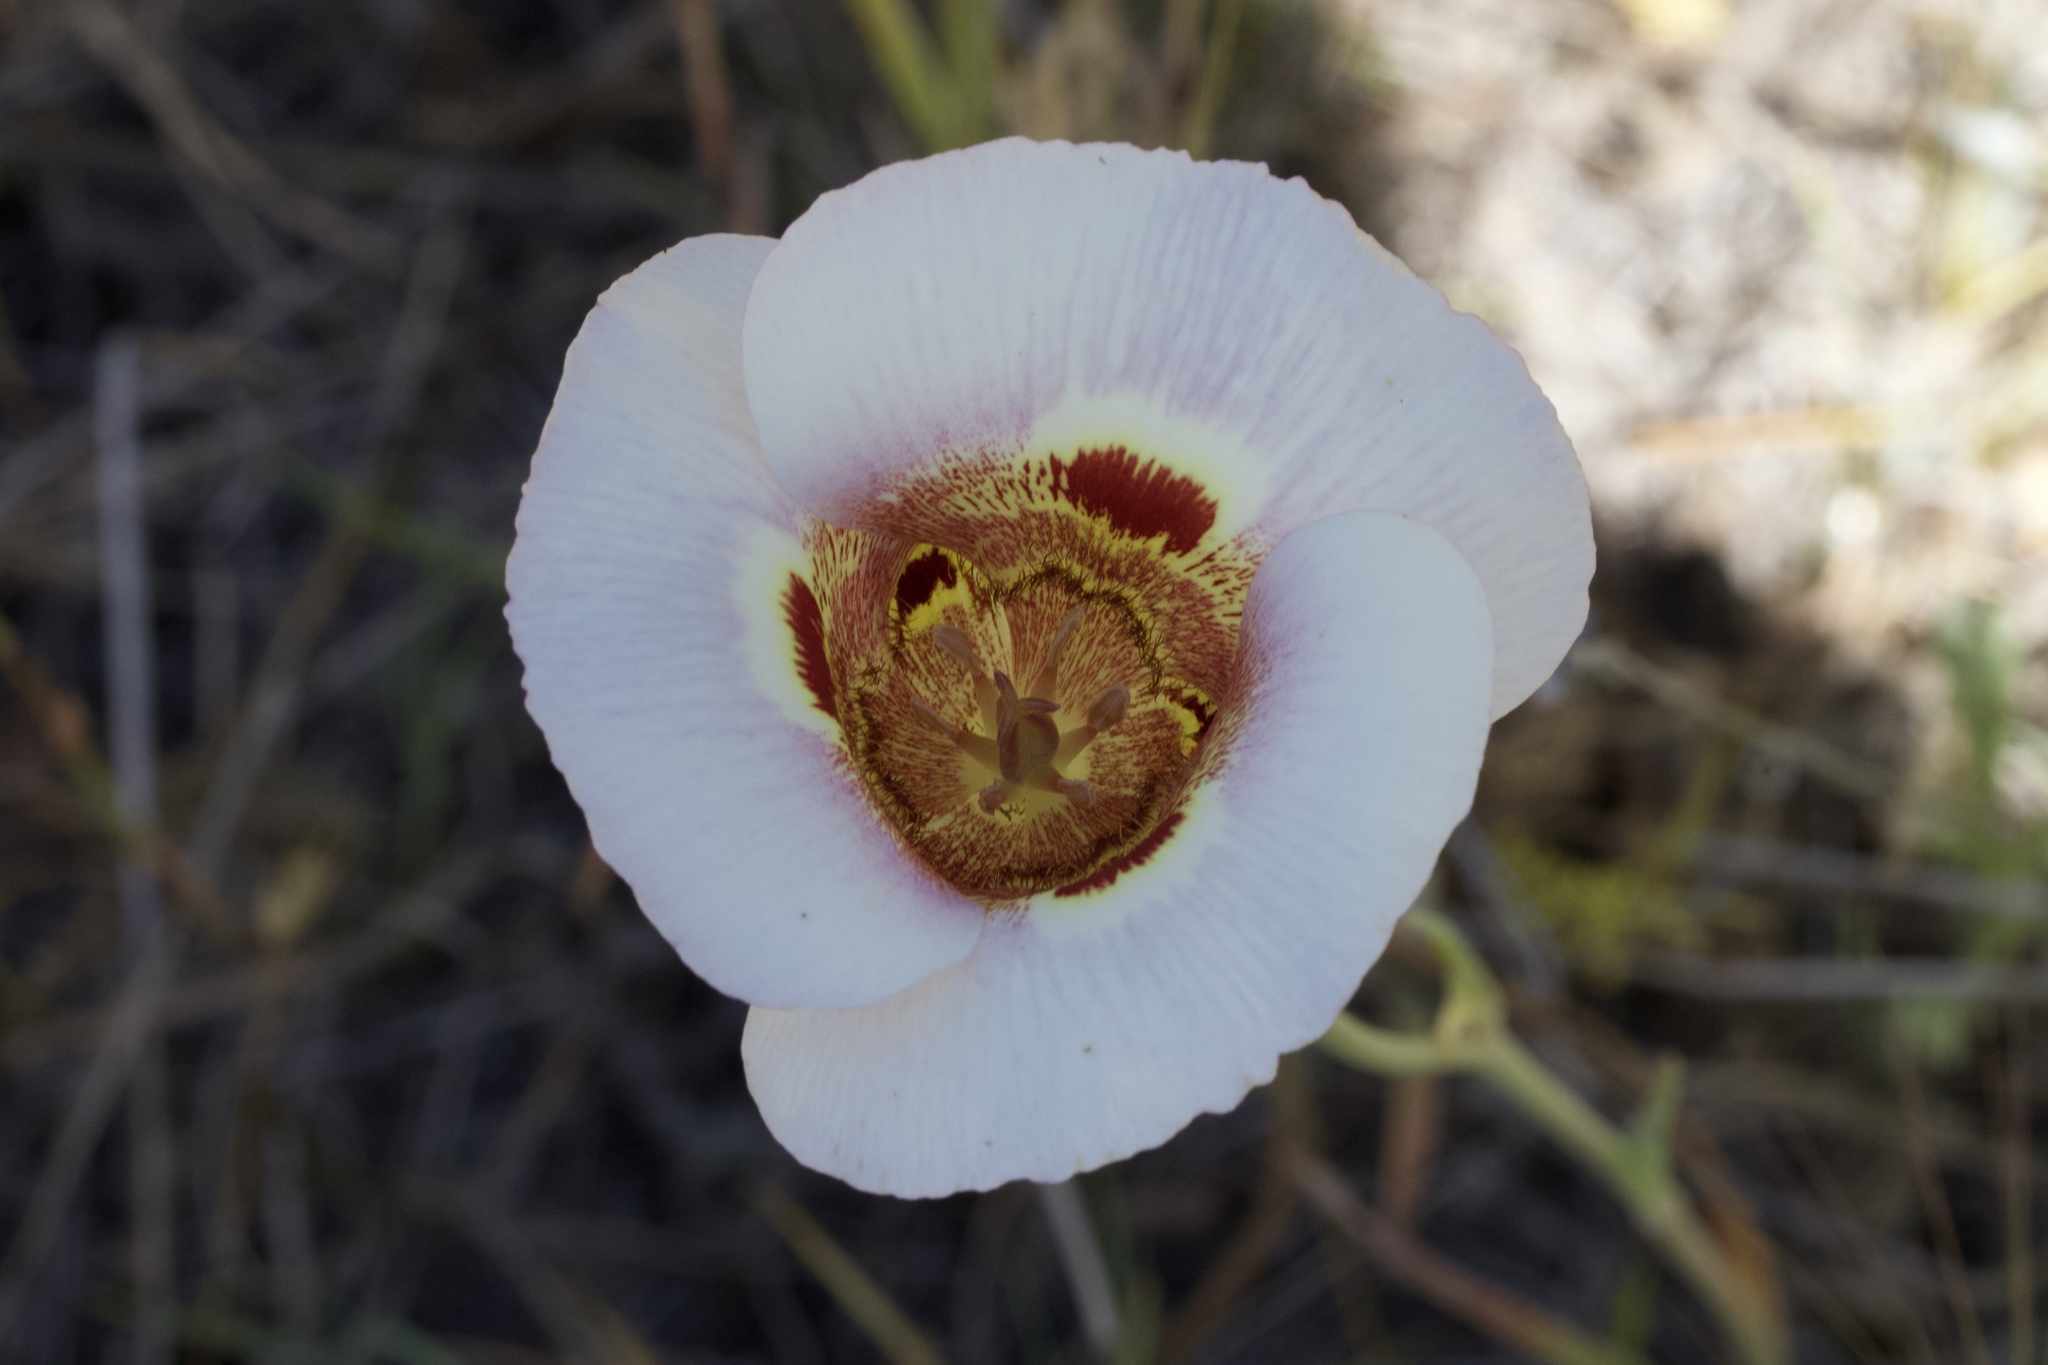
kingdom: Plantae
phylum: Tracheophyta
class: Liliopsida
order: Liliales
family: Liliaceae
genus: Calochortus
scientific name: Calochortus vestae
